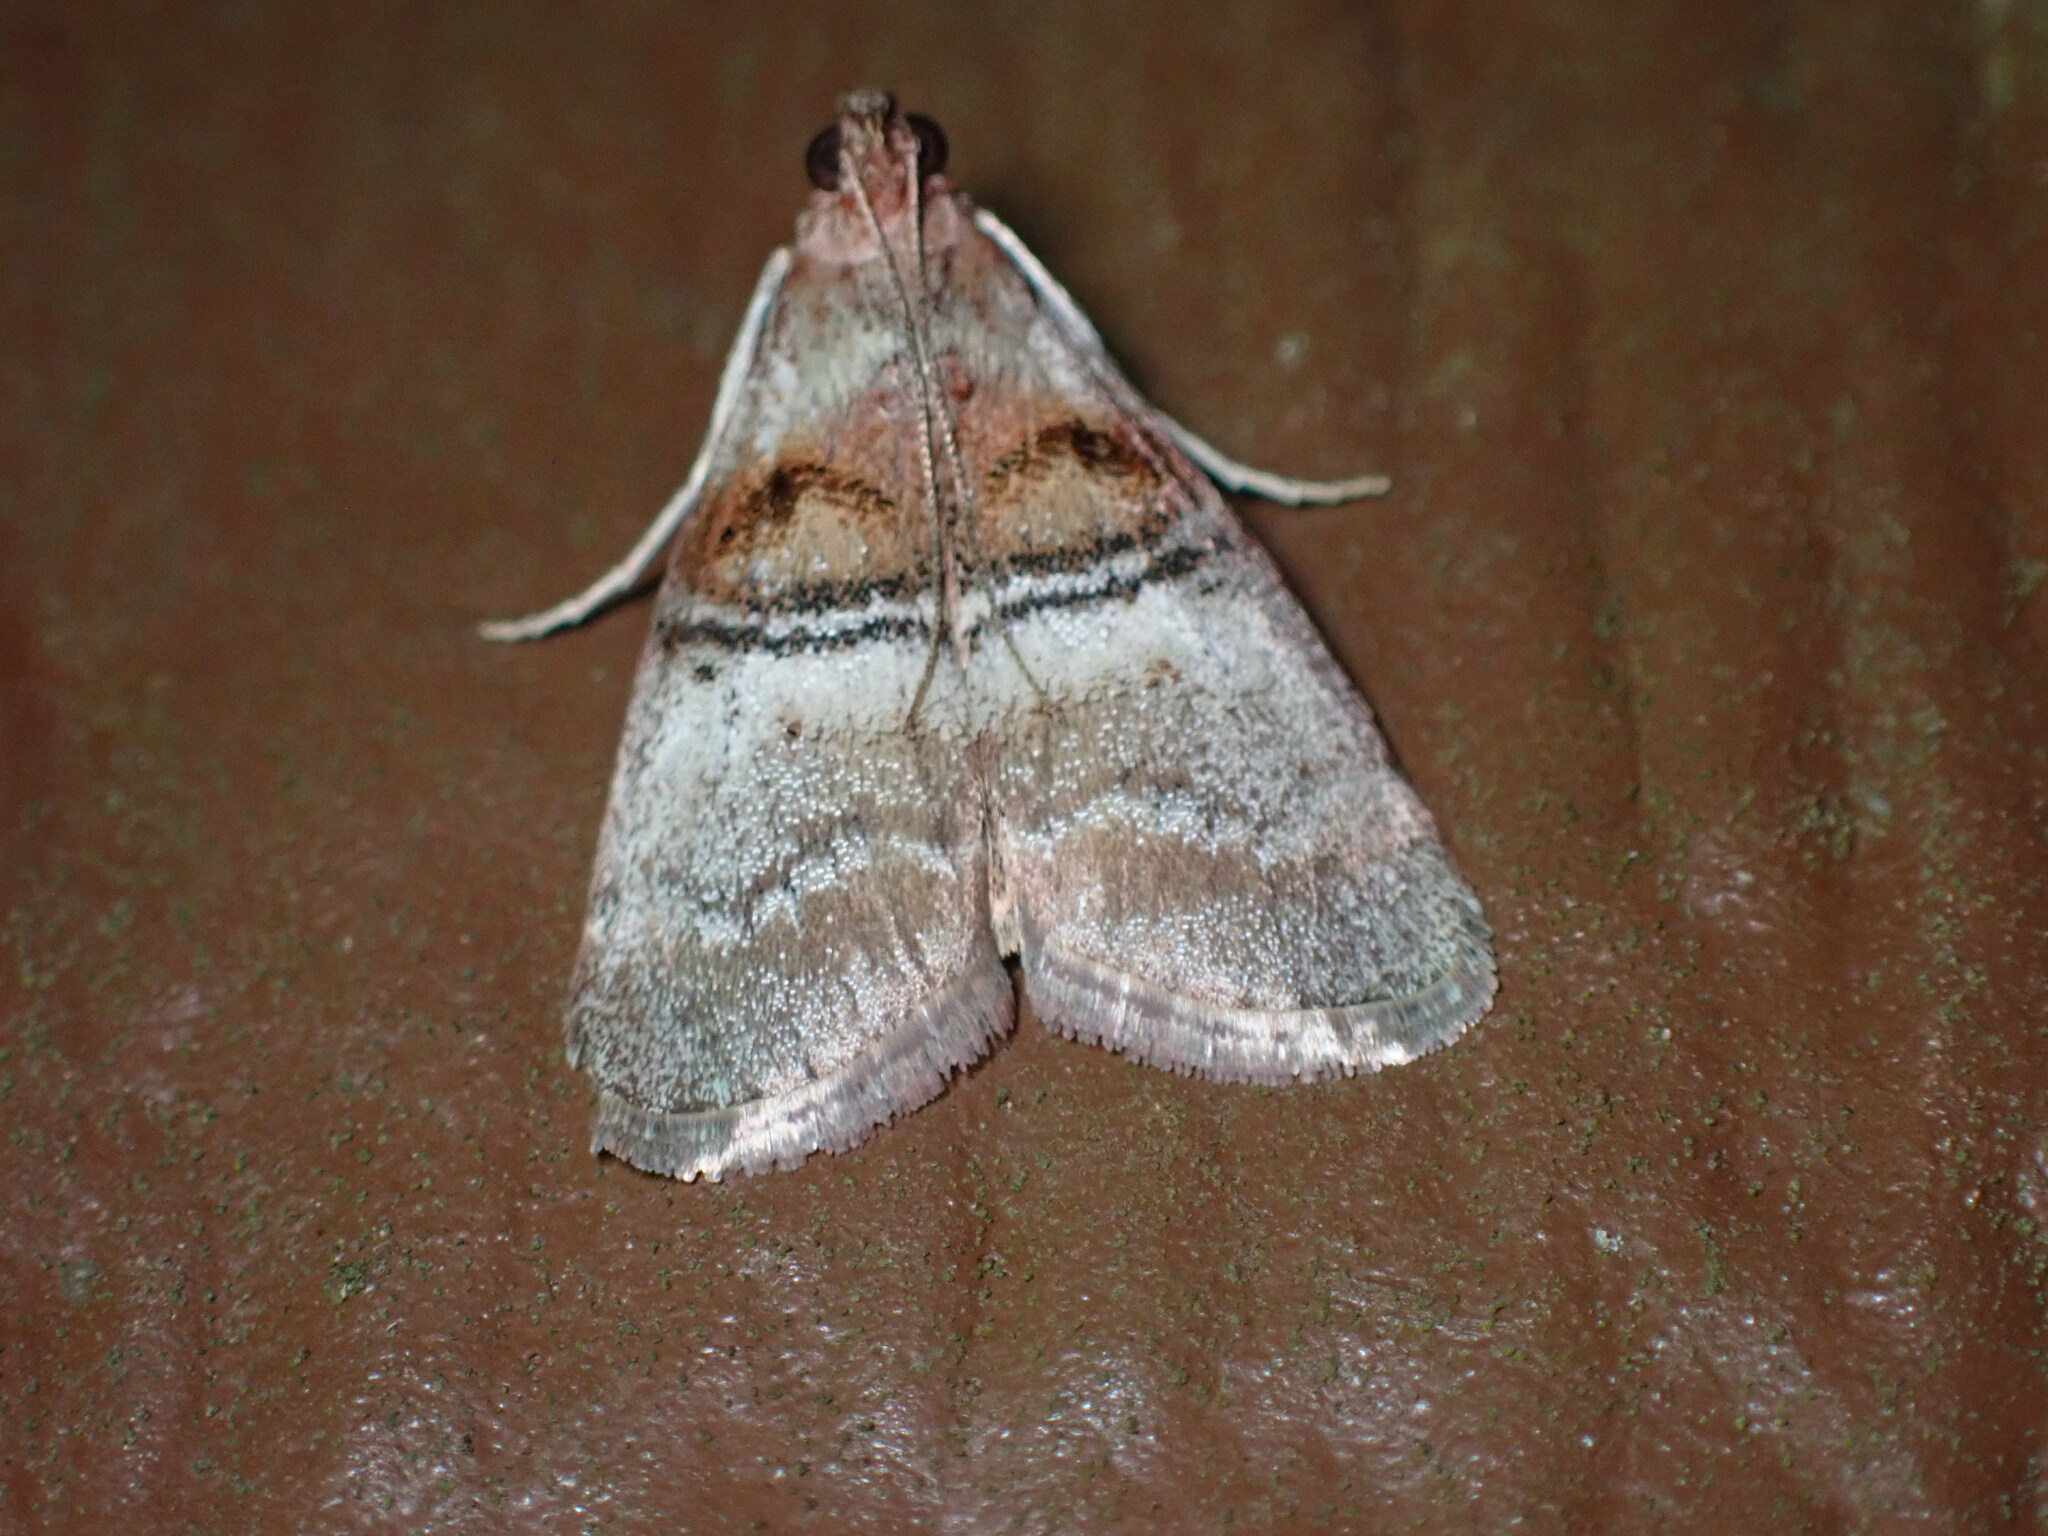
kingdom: Animalia
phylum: Arthropoda
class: Insecta
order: Lepidoptera
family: Pyralidae
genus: Pococera
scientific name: Pococera militella
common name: Sycamore webworm moth
